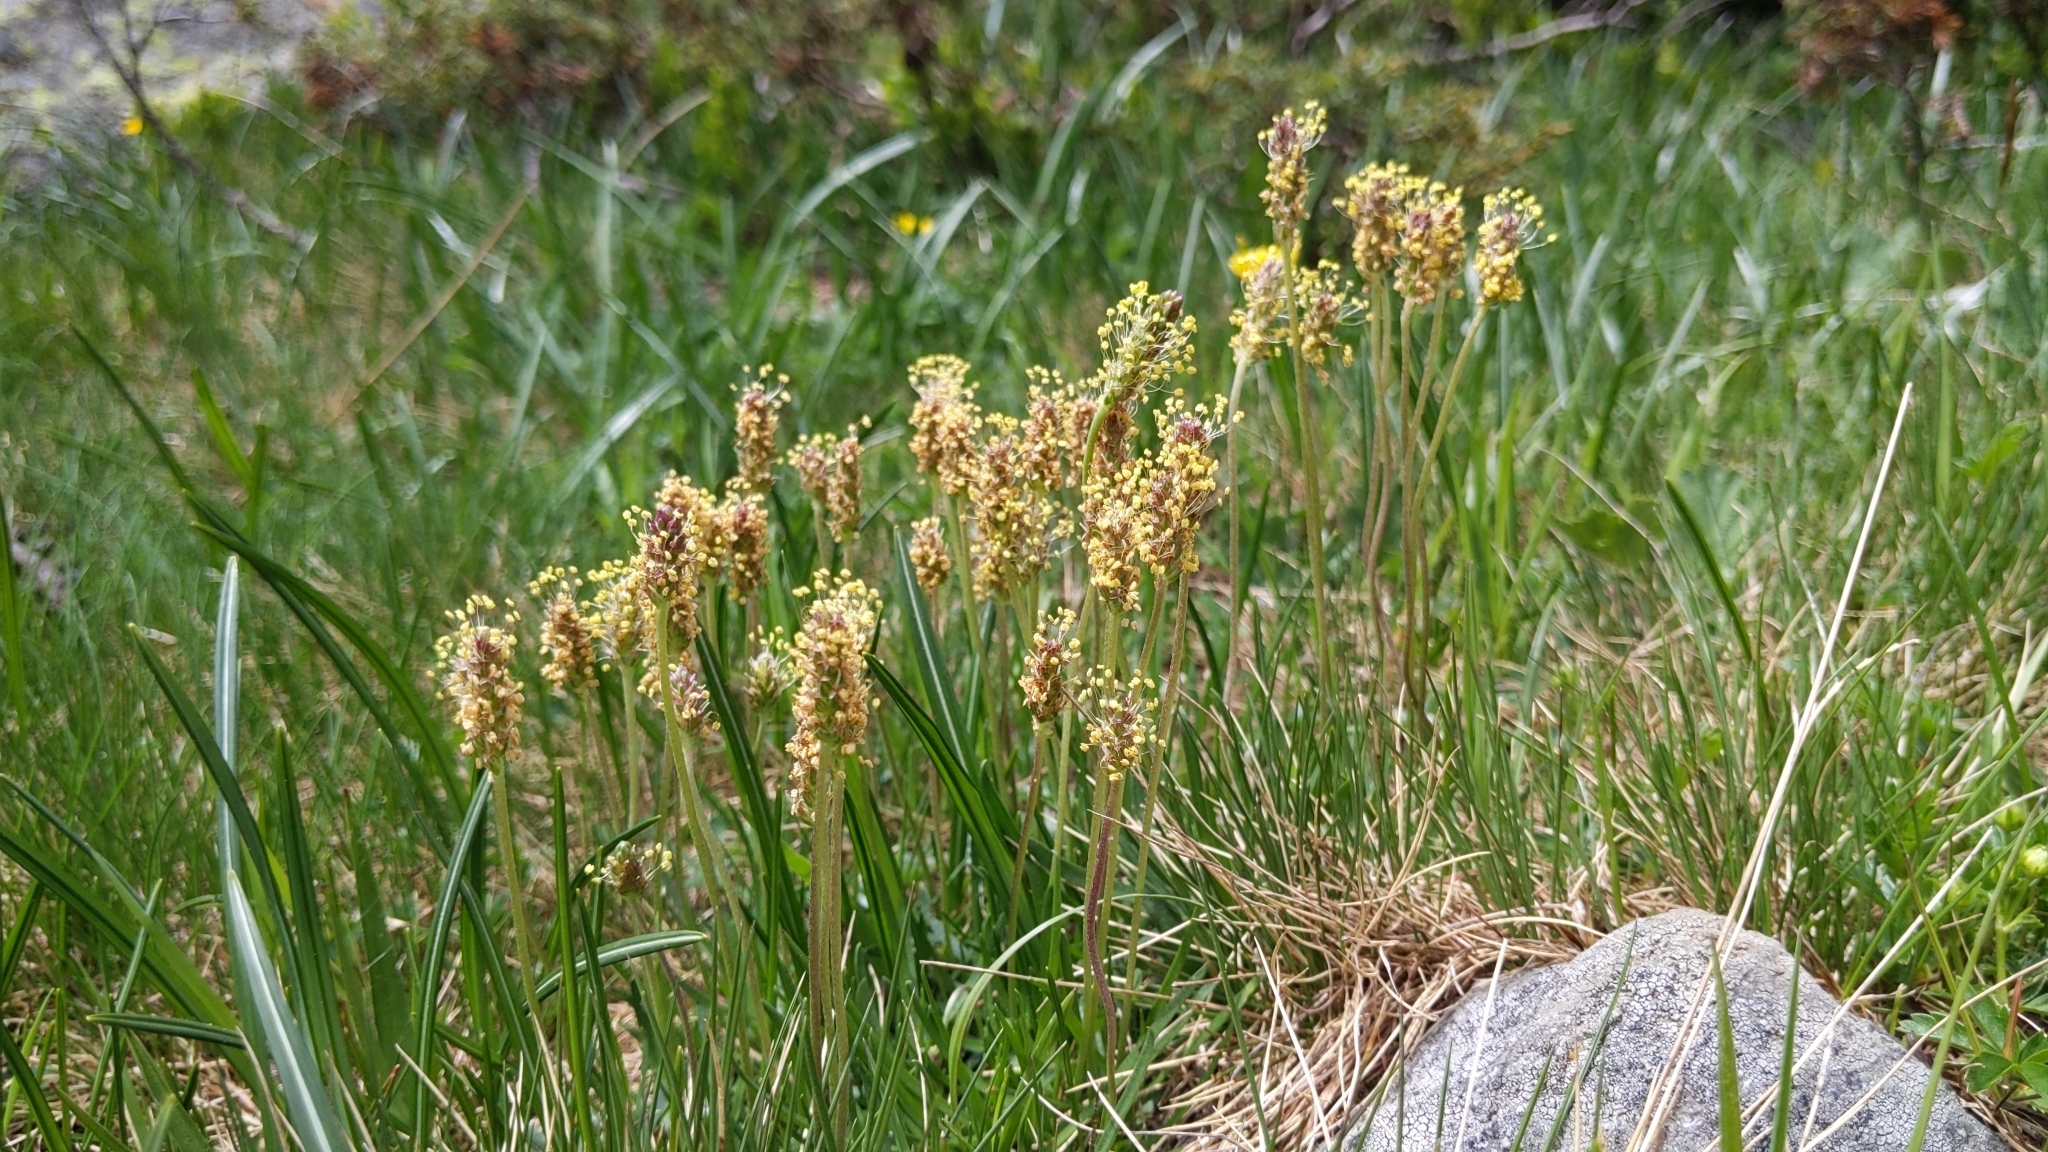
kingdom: Plantae
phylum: Tracheophyta
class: Magnoliopsida
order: Lamiales
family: Plantaginaceae
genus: Plantago
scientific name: Plantago alpina
